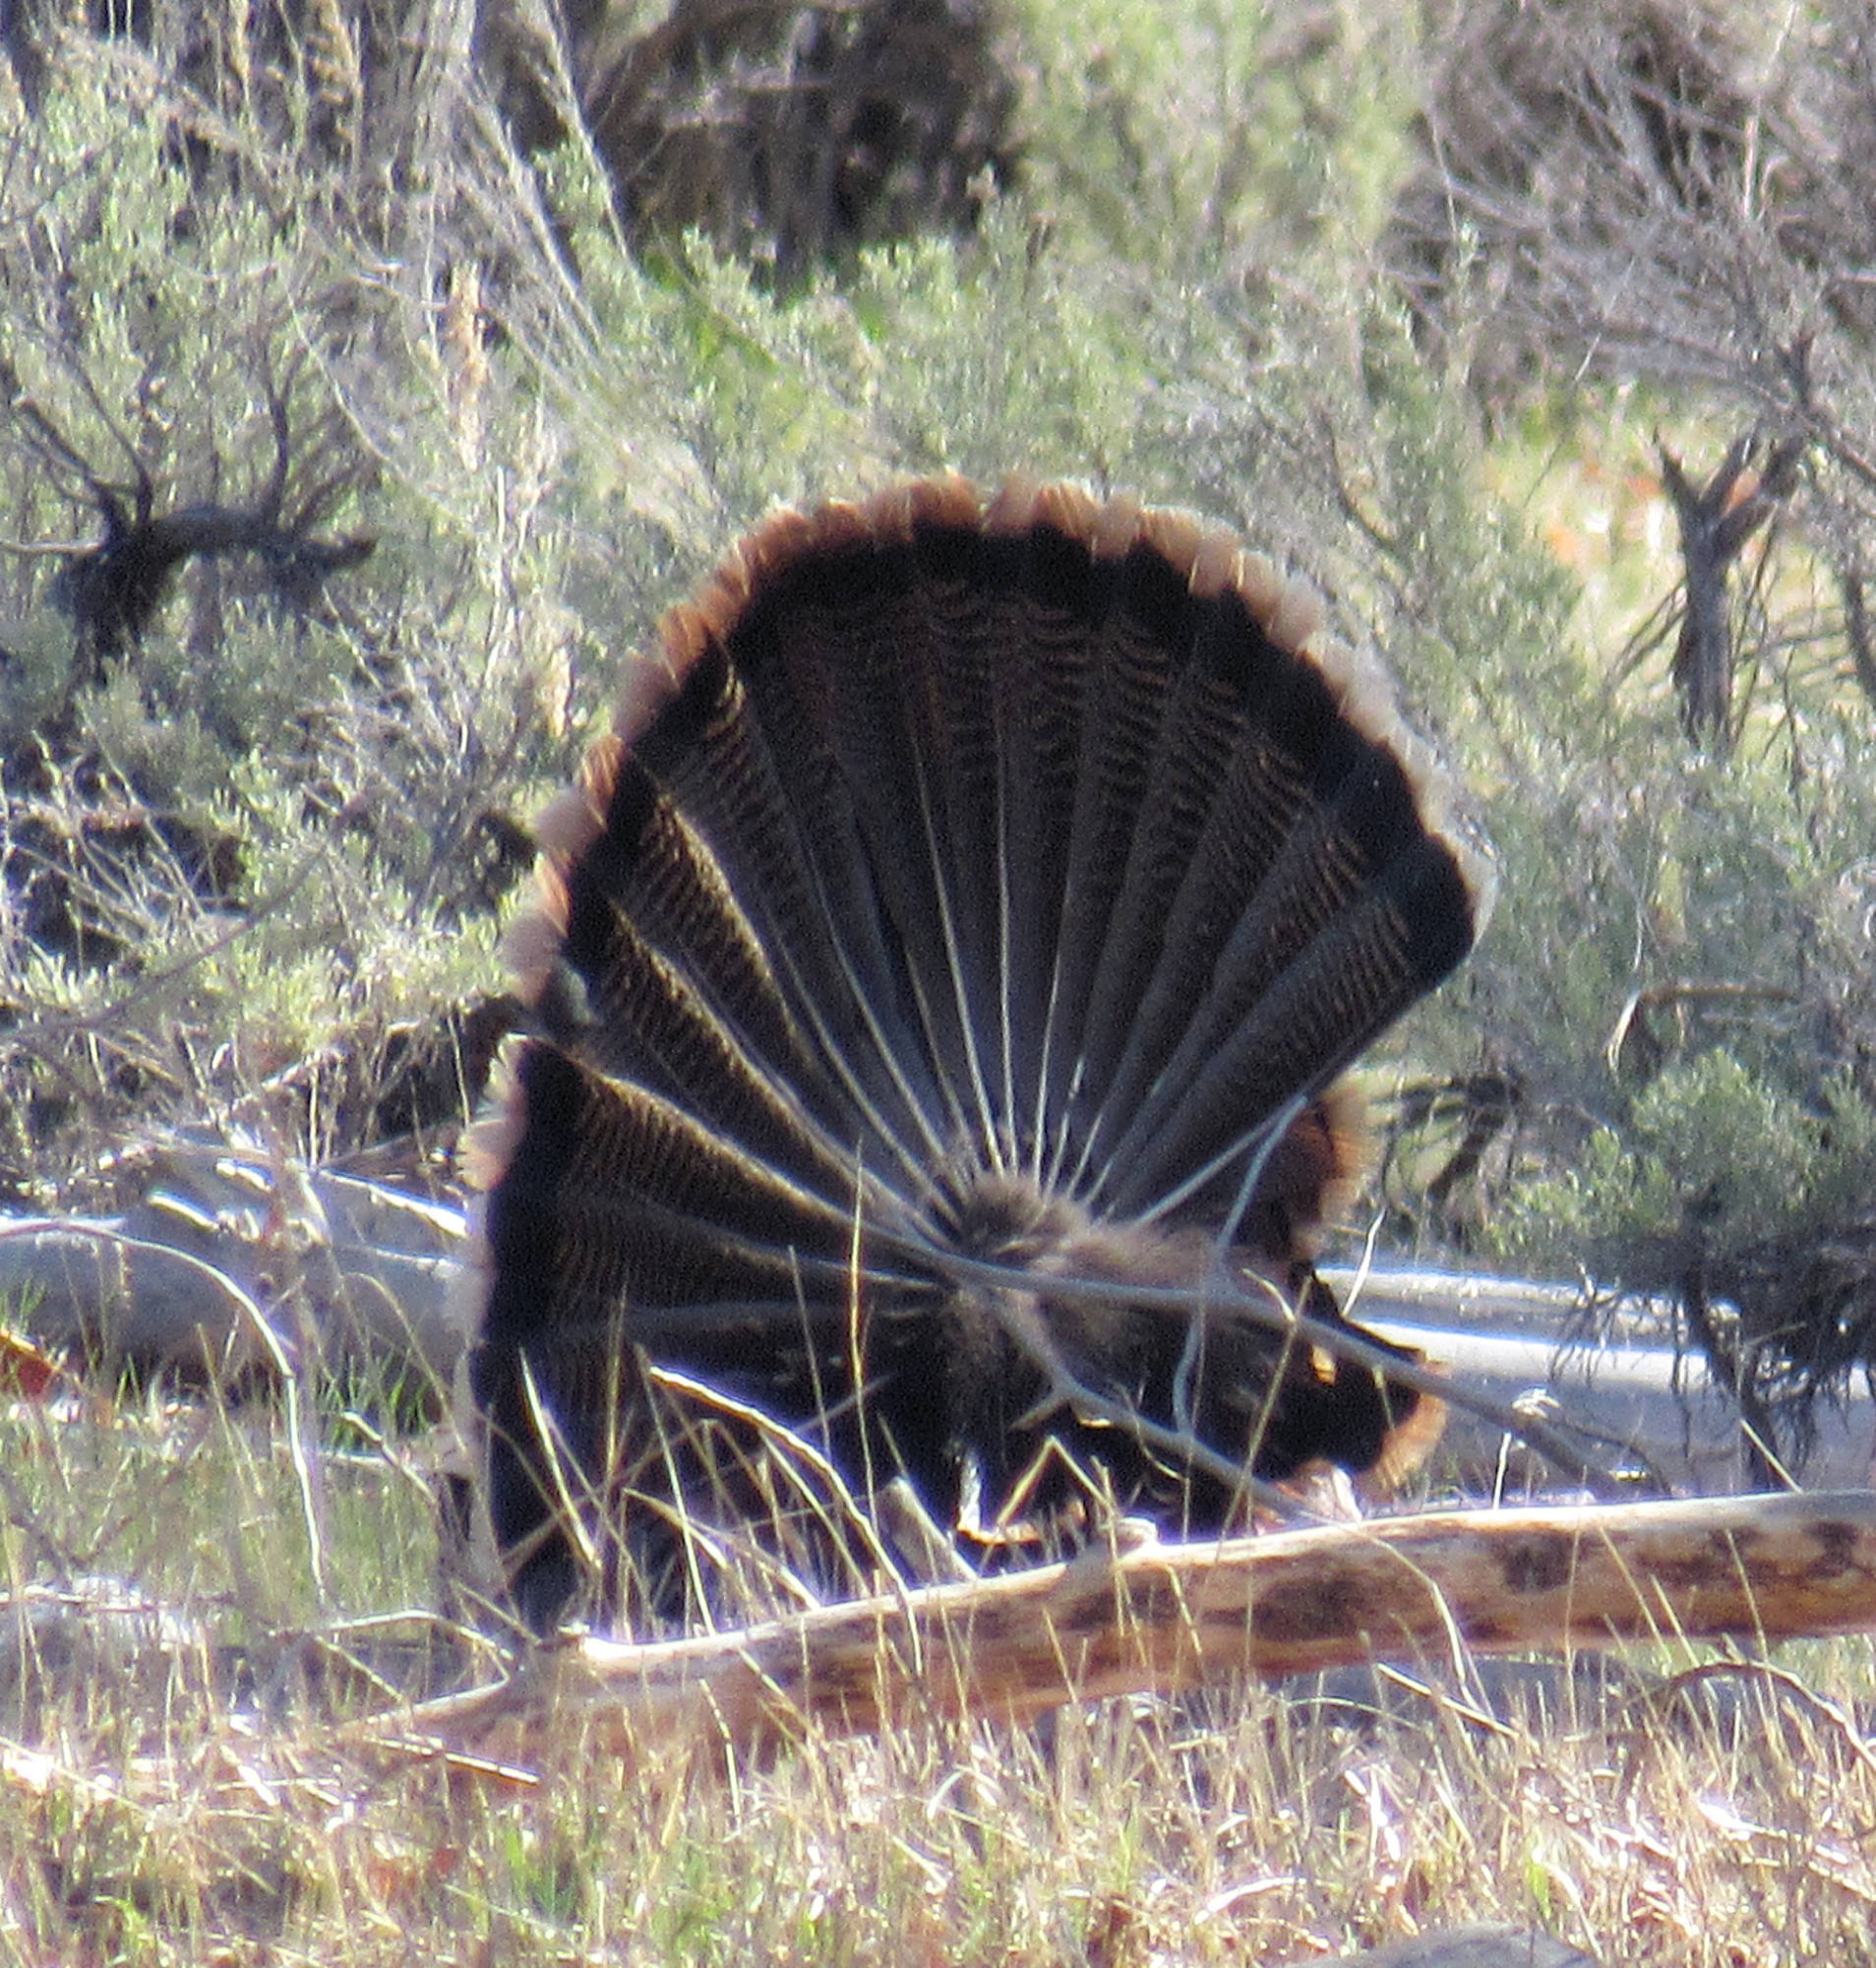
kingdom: Animalia
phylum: Chordata
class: Aves
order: Galliformes
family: Phasianidae
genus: Meleagris
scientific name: Meleagris gallopavo
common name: Wild turkey
